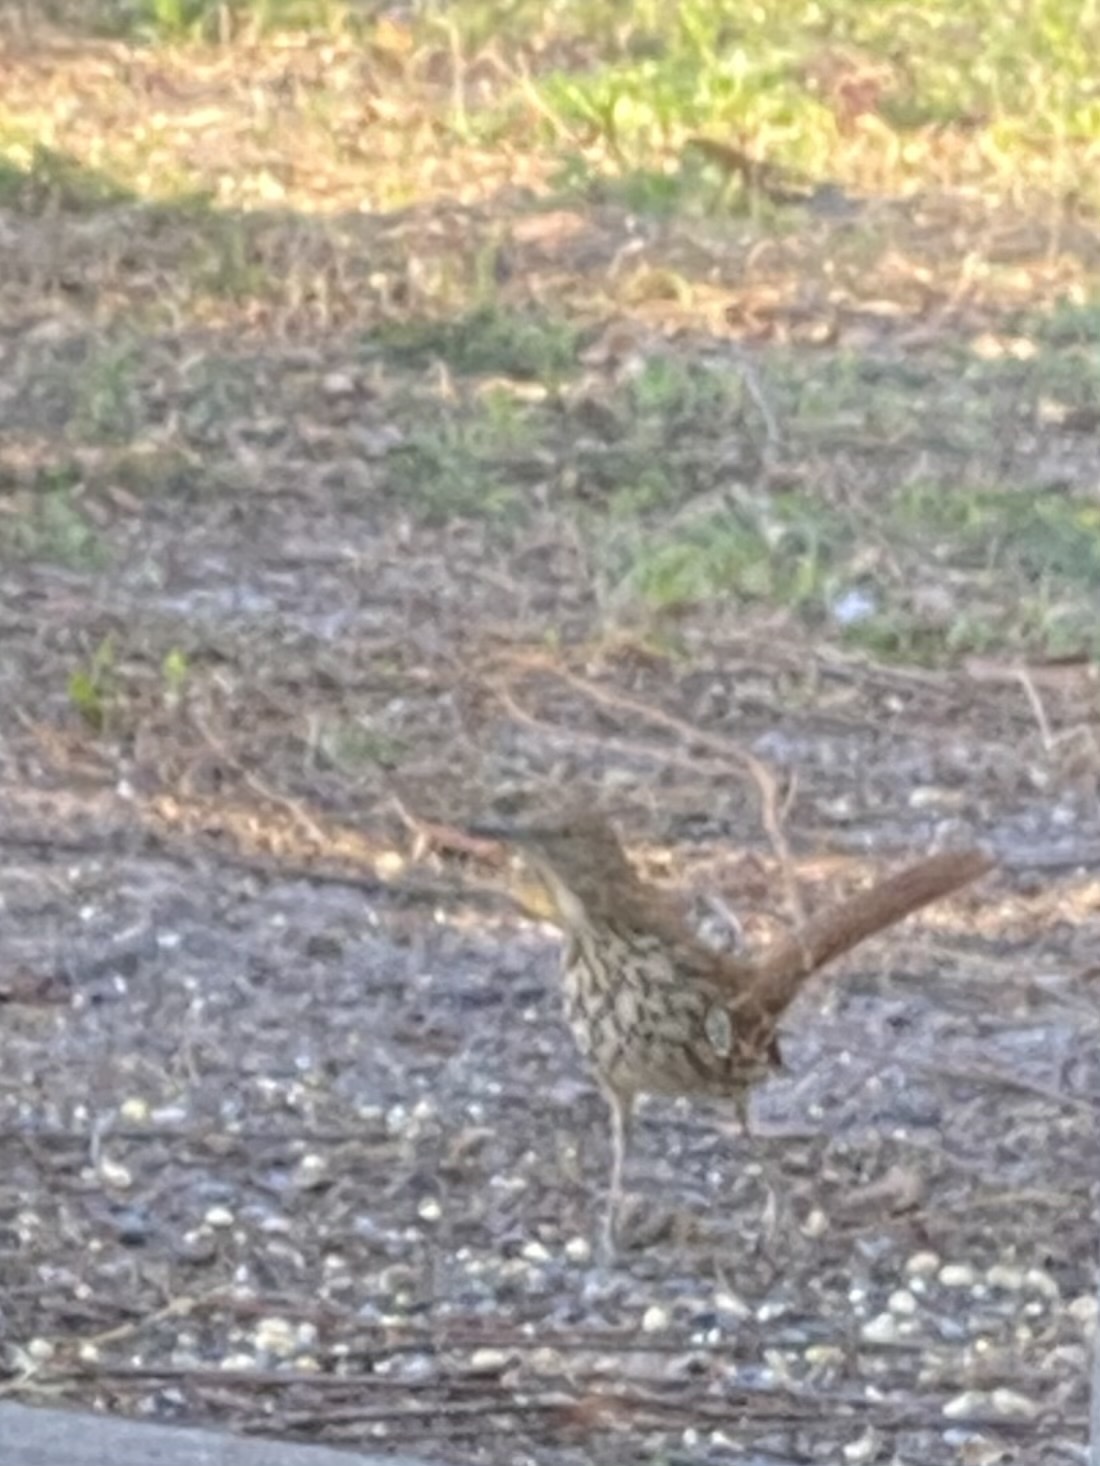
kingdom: Animalia
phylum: Chordata
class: Aves
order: Passeriformes
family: Mimidae
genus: Toxostoma
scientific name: Toxostoma rufum
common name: Brown thrasher
